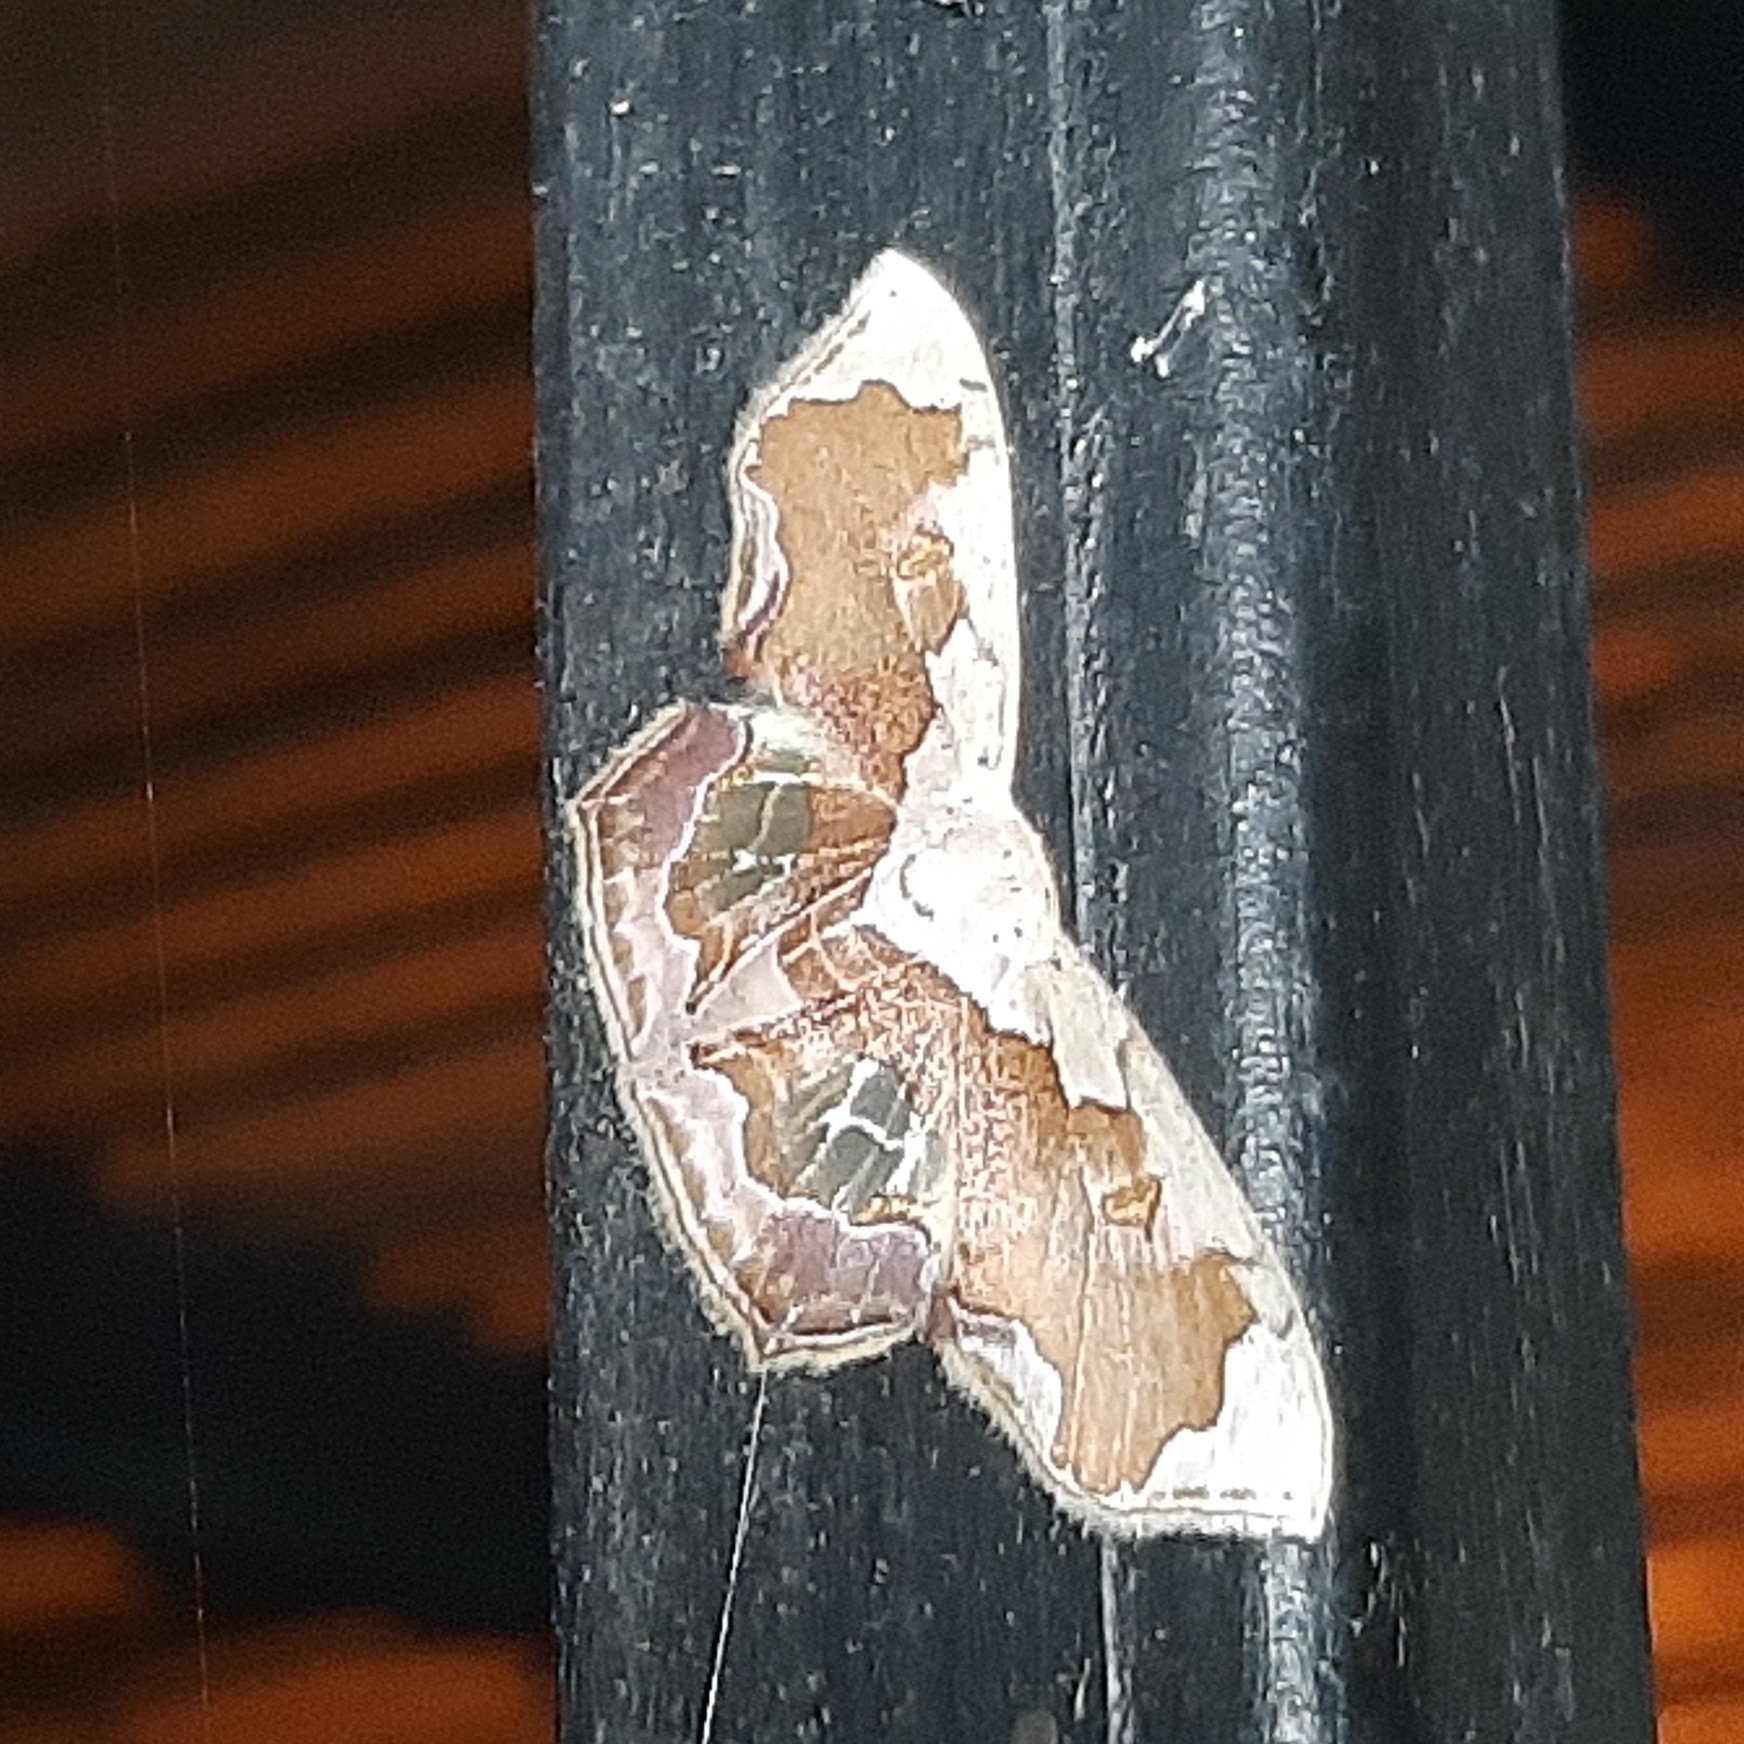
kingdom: Animalia
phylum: Arthropoda
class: Insecta
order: Lepidoptera
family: Geometridae
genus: Leptostales
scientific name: Leptostales angulata
